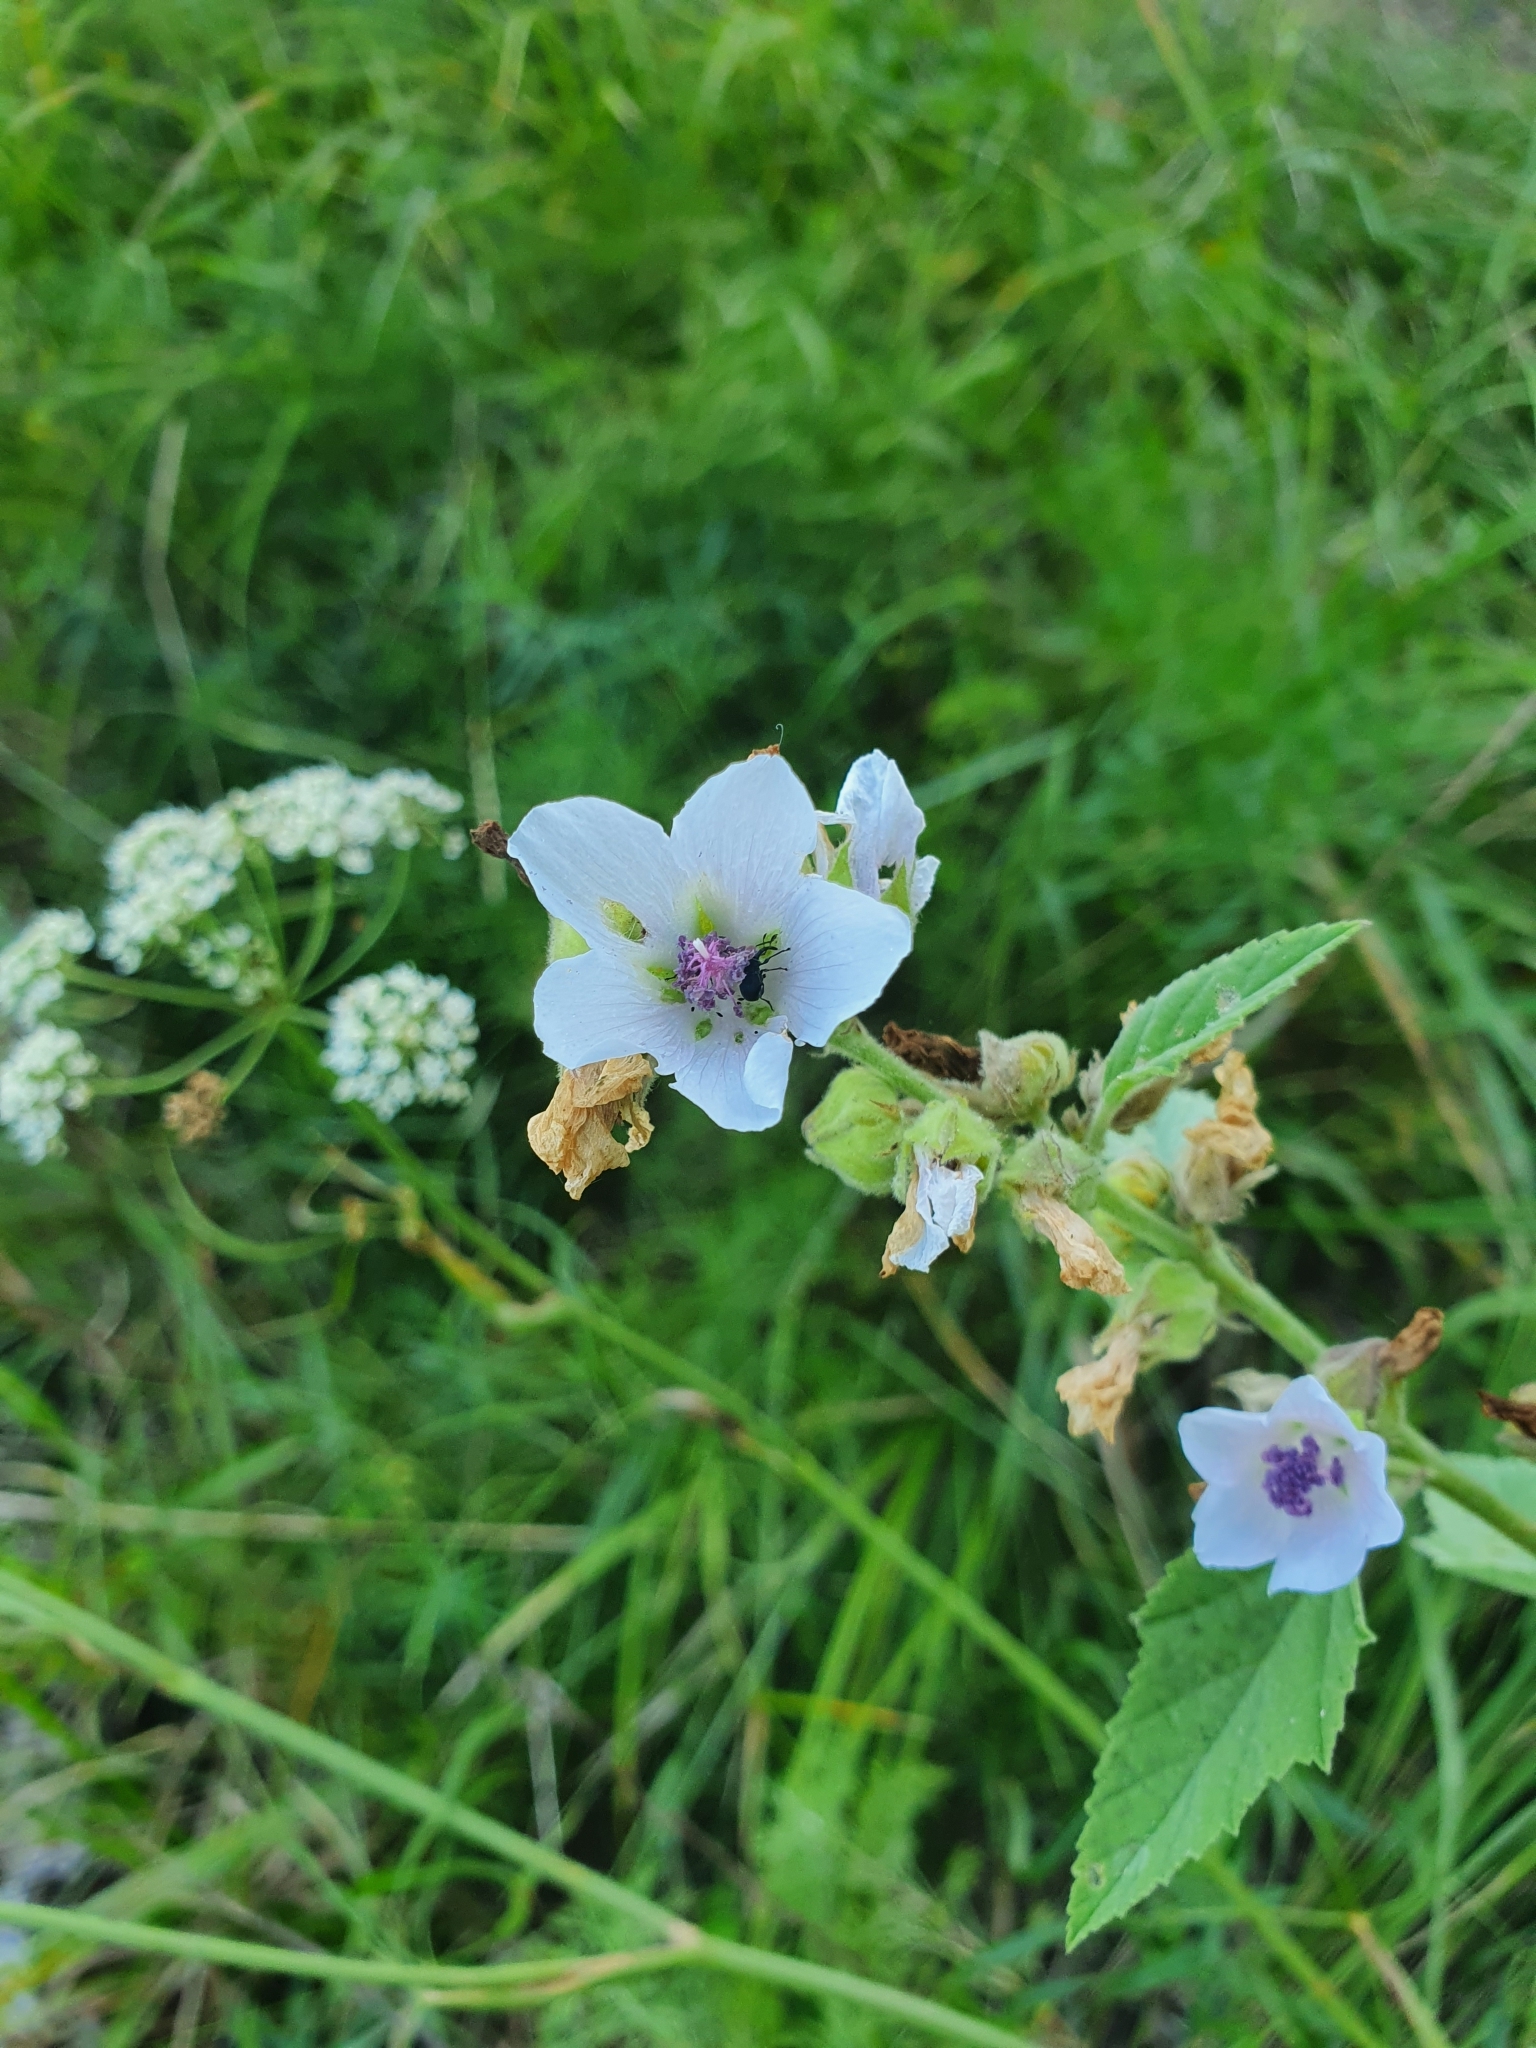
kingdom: Plantae
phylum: Tracheophyta
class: Magnoliopsida
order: Malvales
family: Malvaceae
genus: Althaea
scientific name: Althaea officinalis
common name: Marsh-mallow
